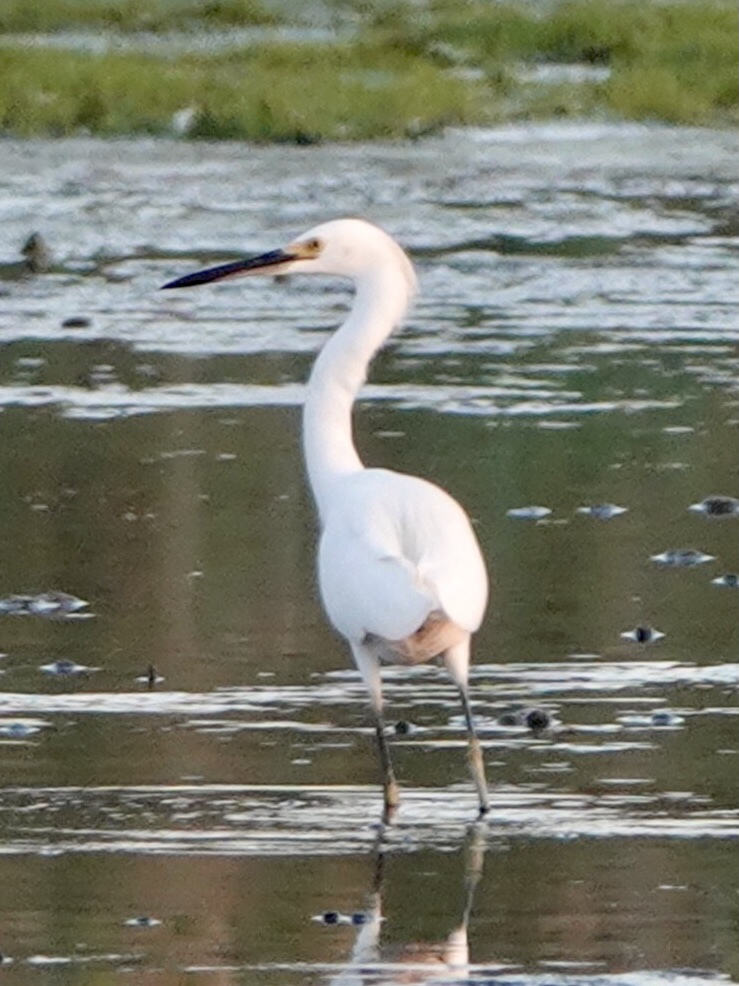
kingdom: Animalia
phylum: Chordata
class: Aves
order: Pelecaniformes
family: Ardeidae
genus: Egretta
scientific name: Egretta thula
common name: Snowy egret
